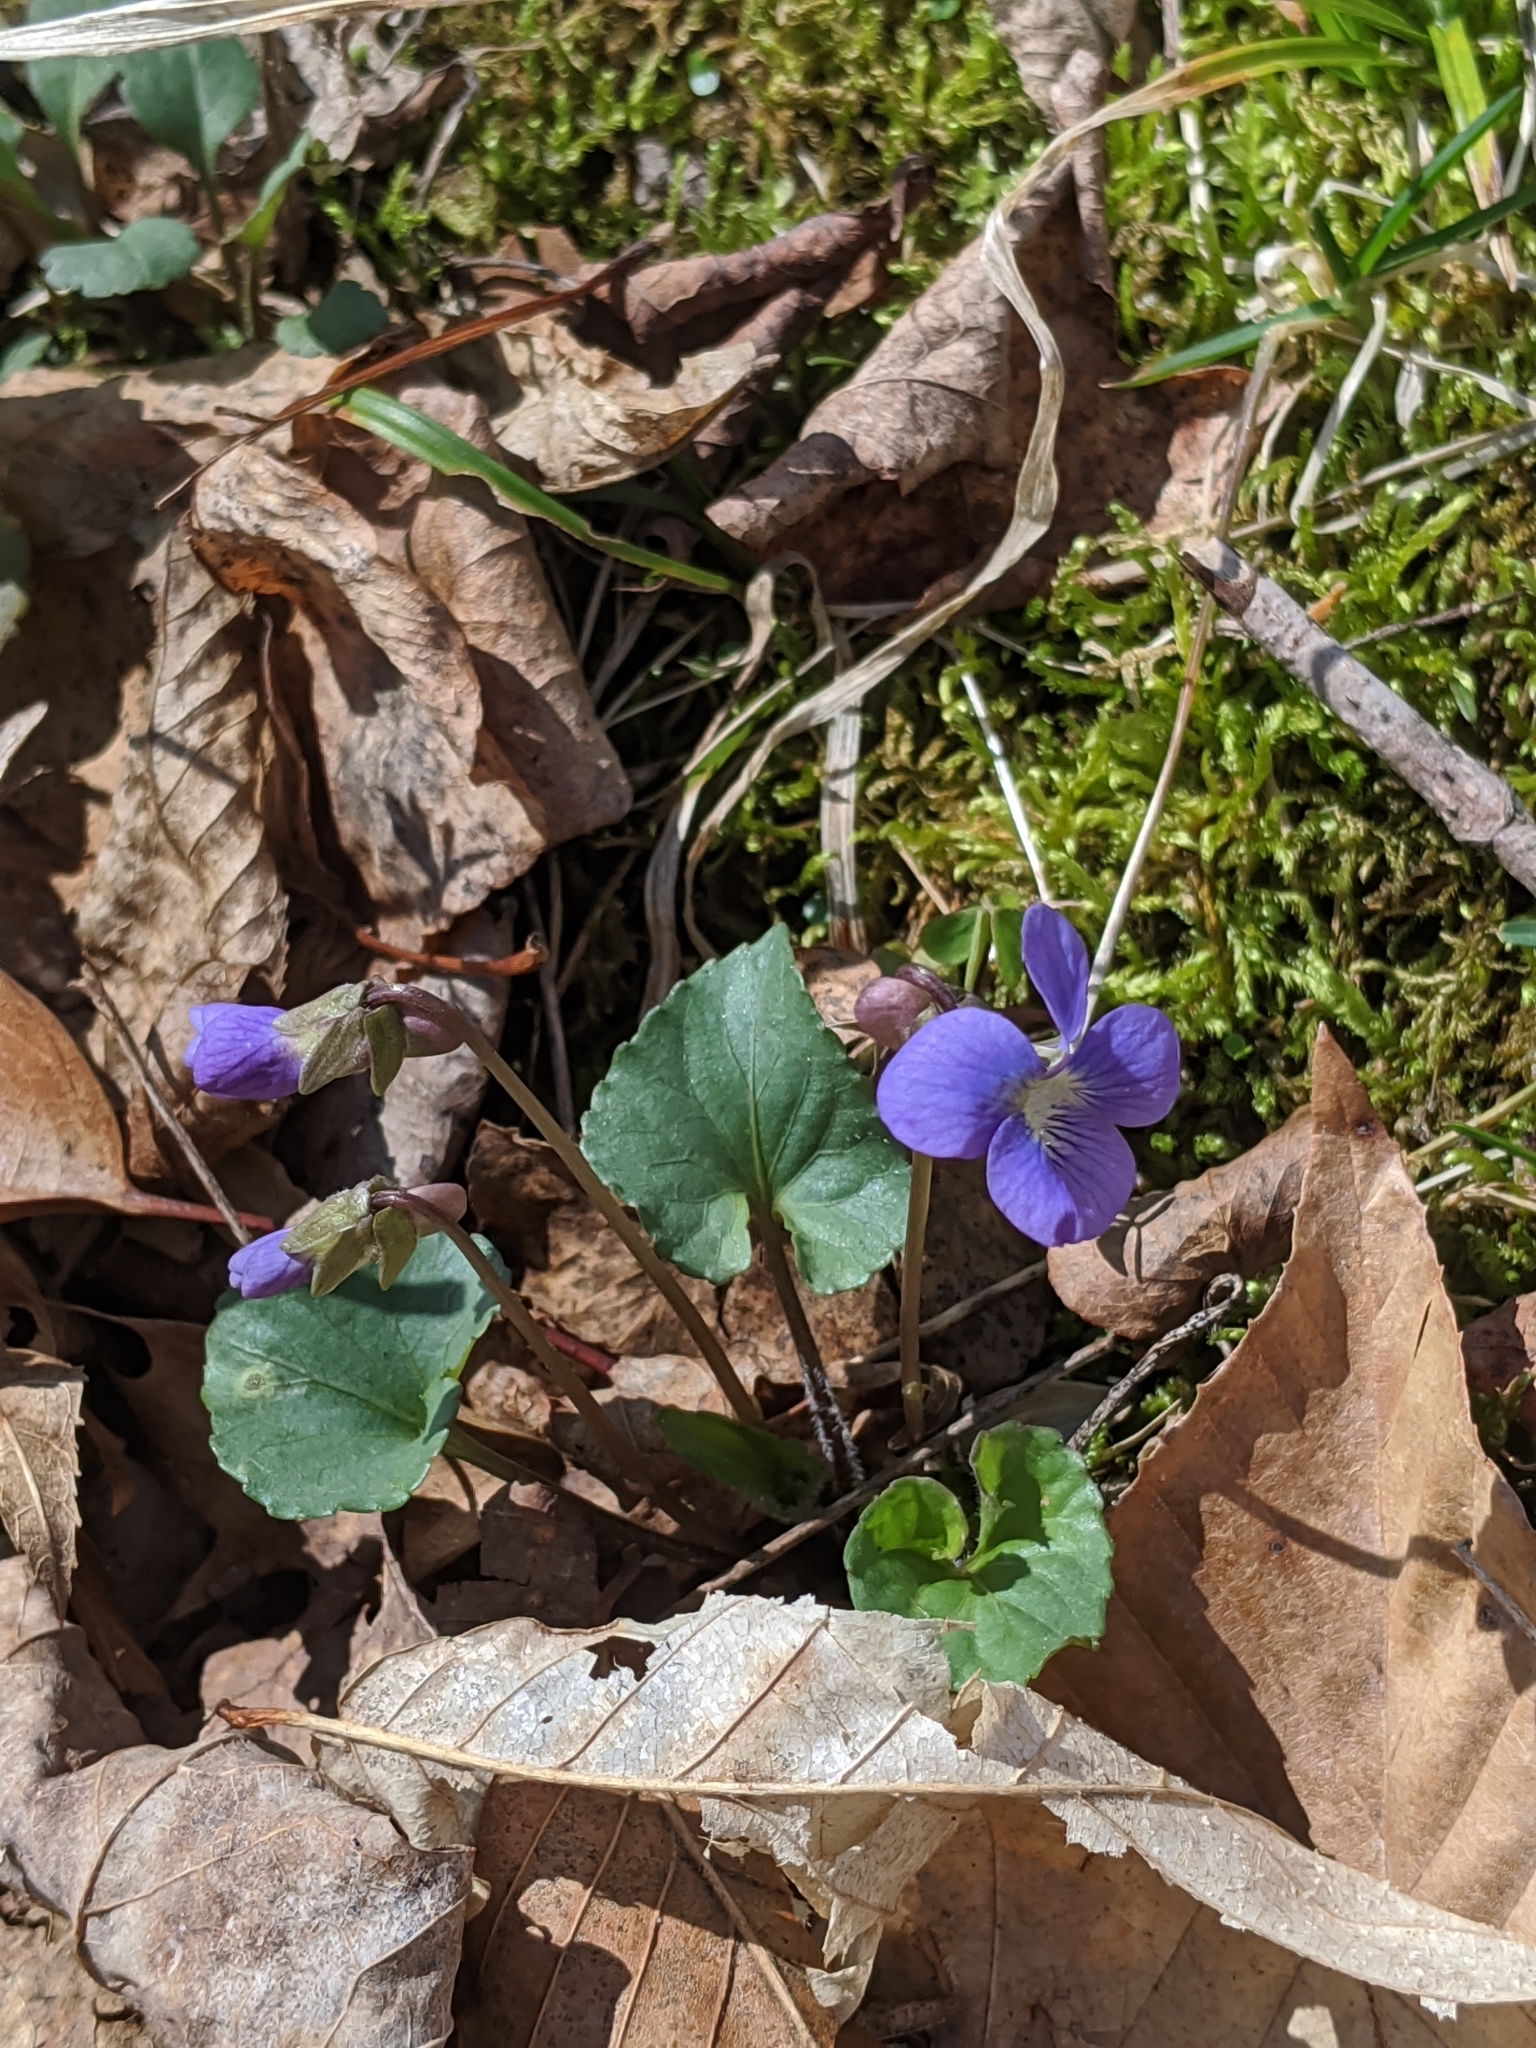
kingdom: Plantae
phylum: Tracheophyta
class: Magnoliopsida
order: Malpighiales
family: Violaceae
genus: Viola
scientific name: Viola sororia
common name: Dooryard violet
